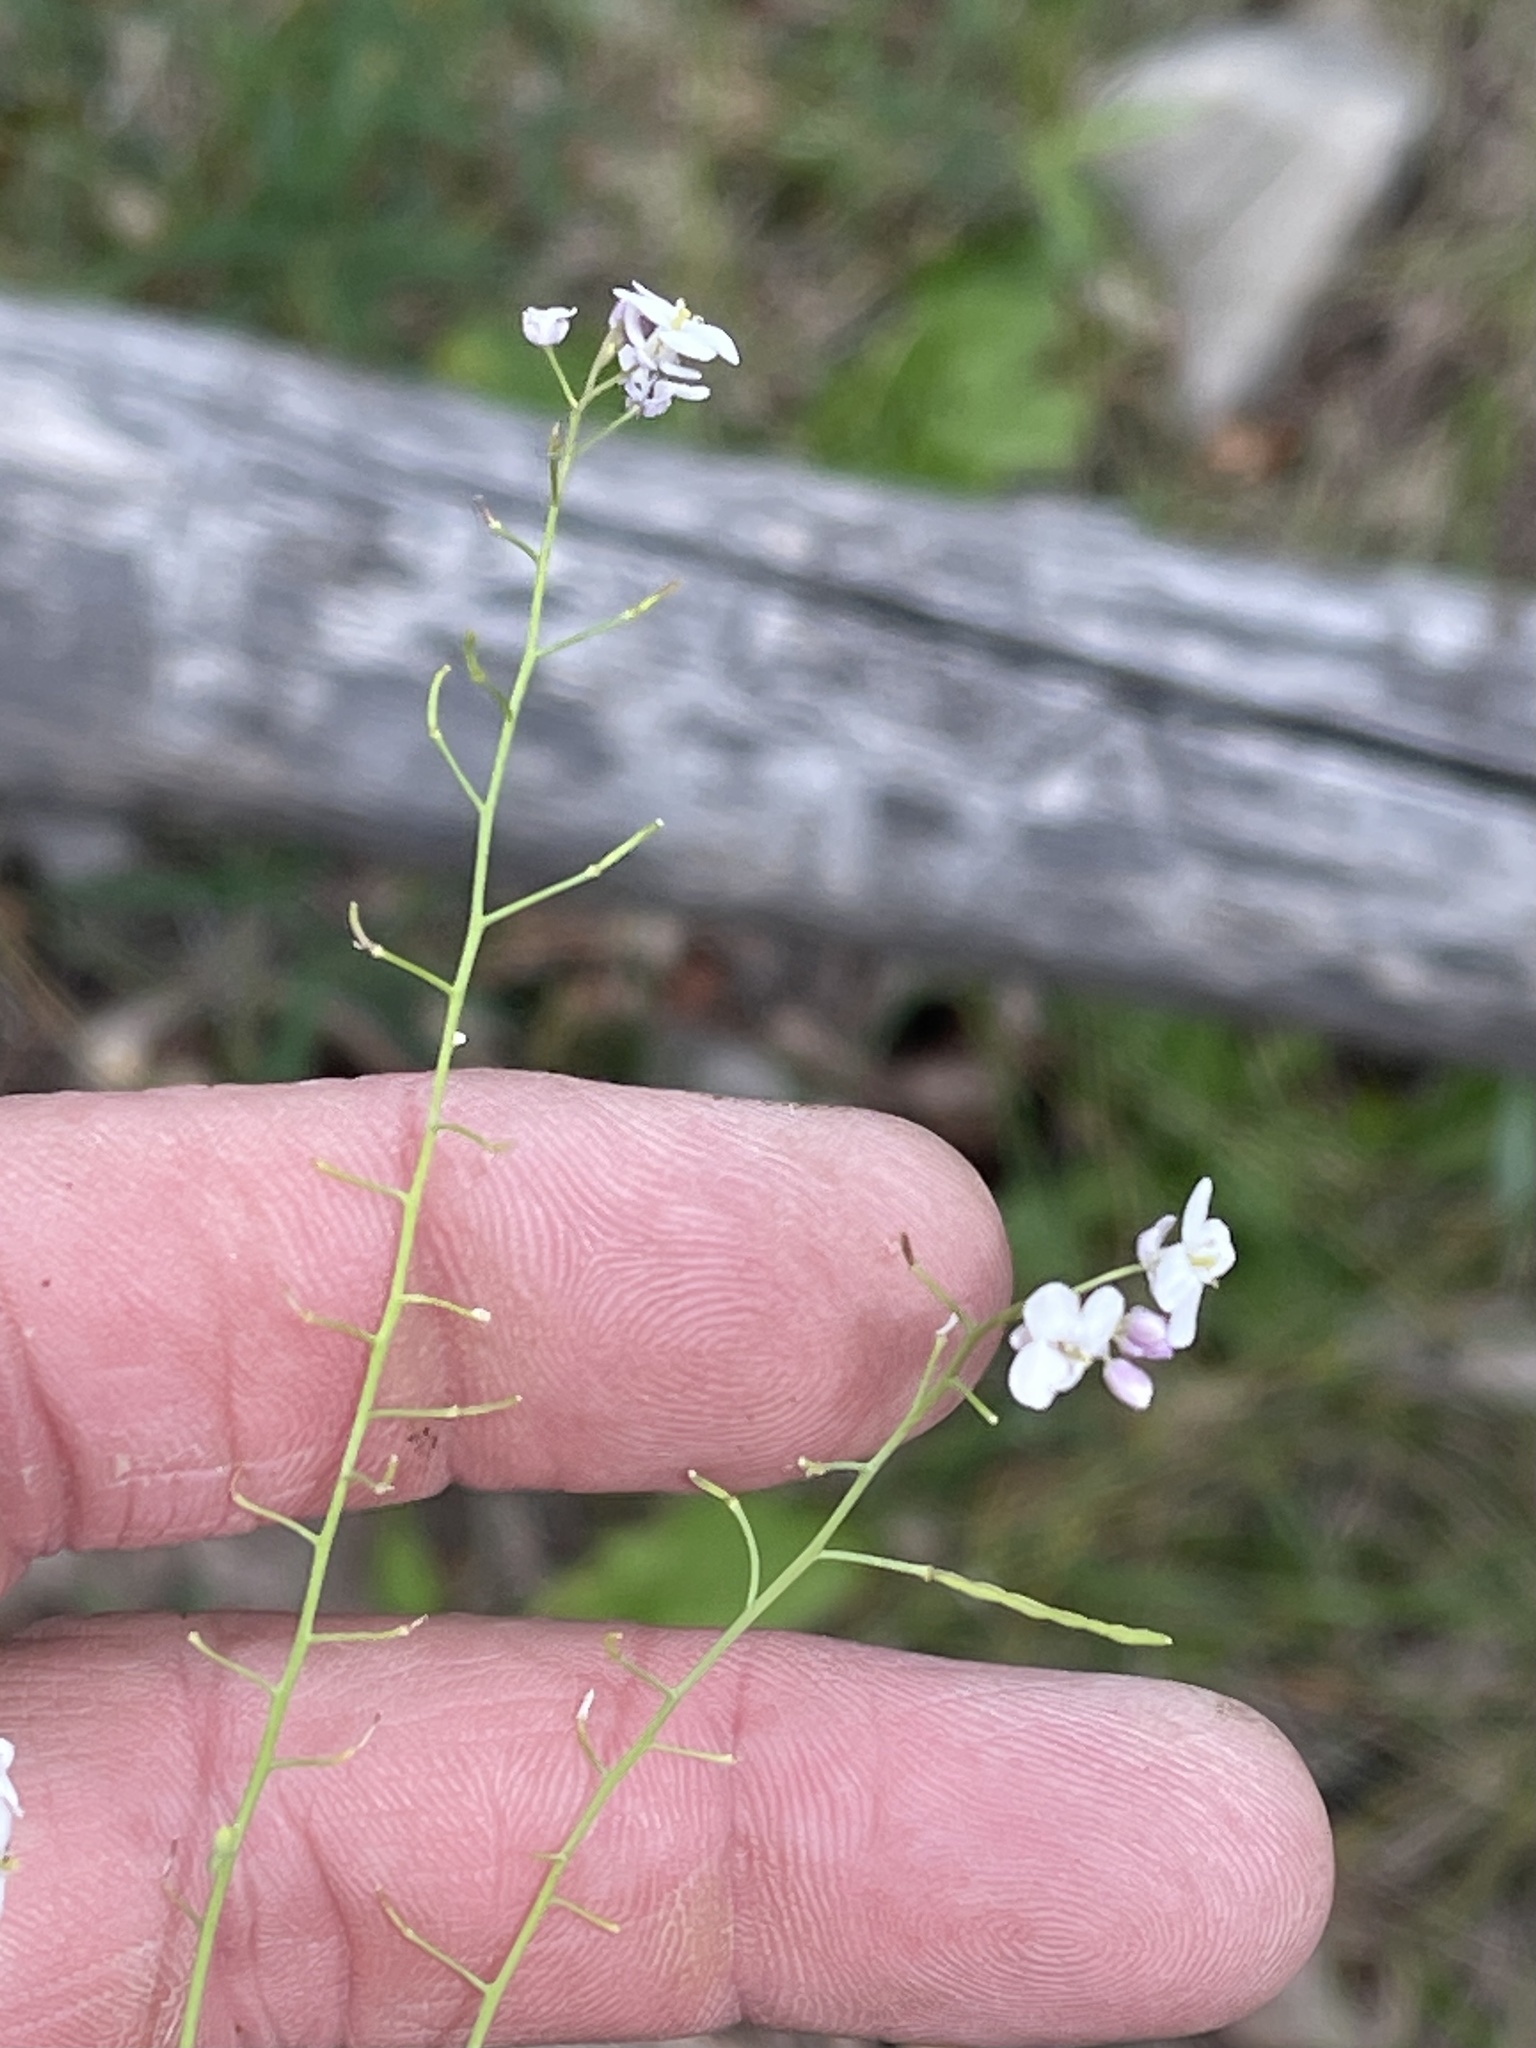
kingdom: Plantae
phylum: Tracheophyta
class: Magnoliopsida
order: Brassicales
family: Brassicaceae
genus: Mostacillastrum
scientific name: Mostacillastrum subauriculatum
